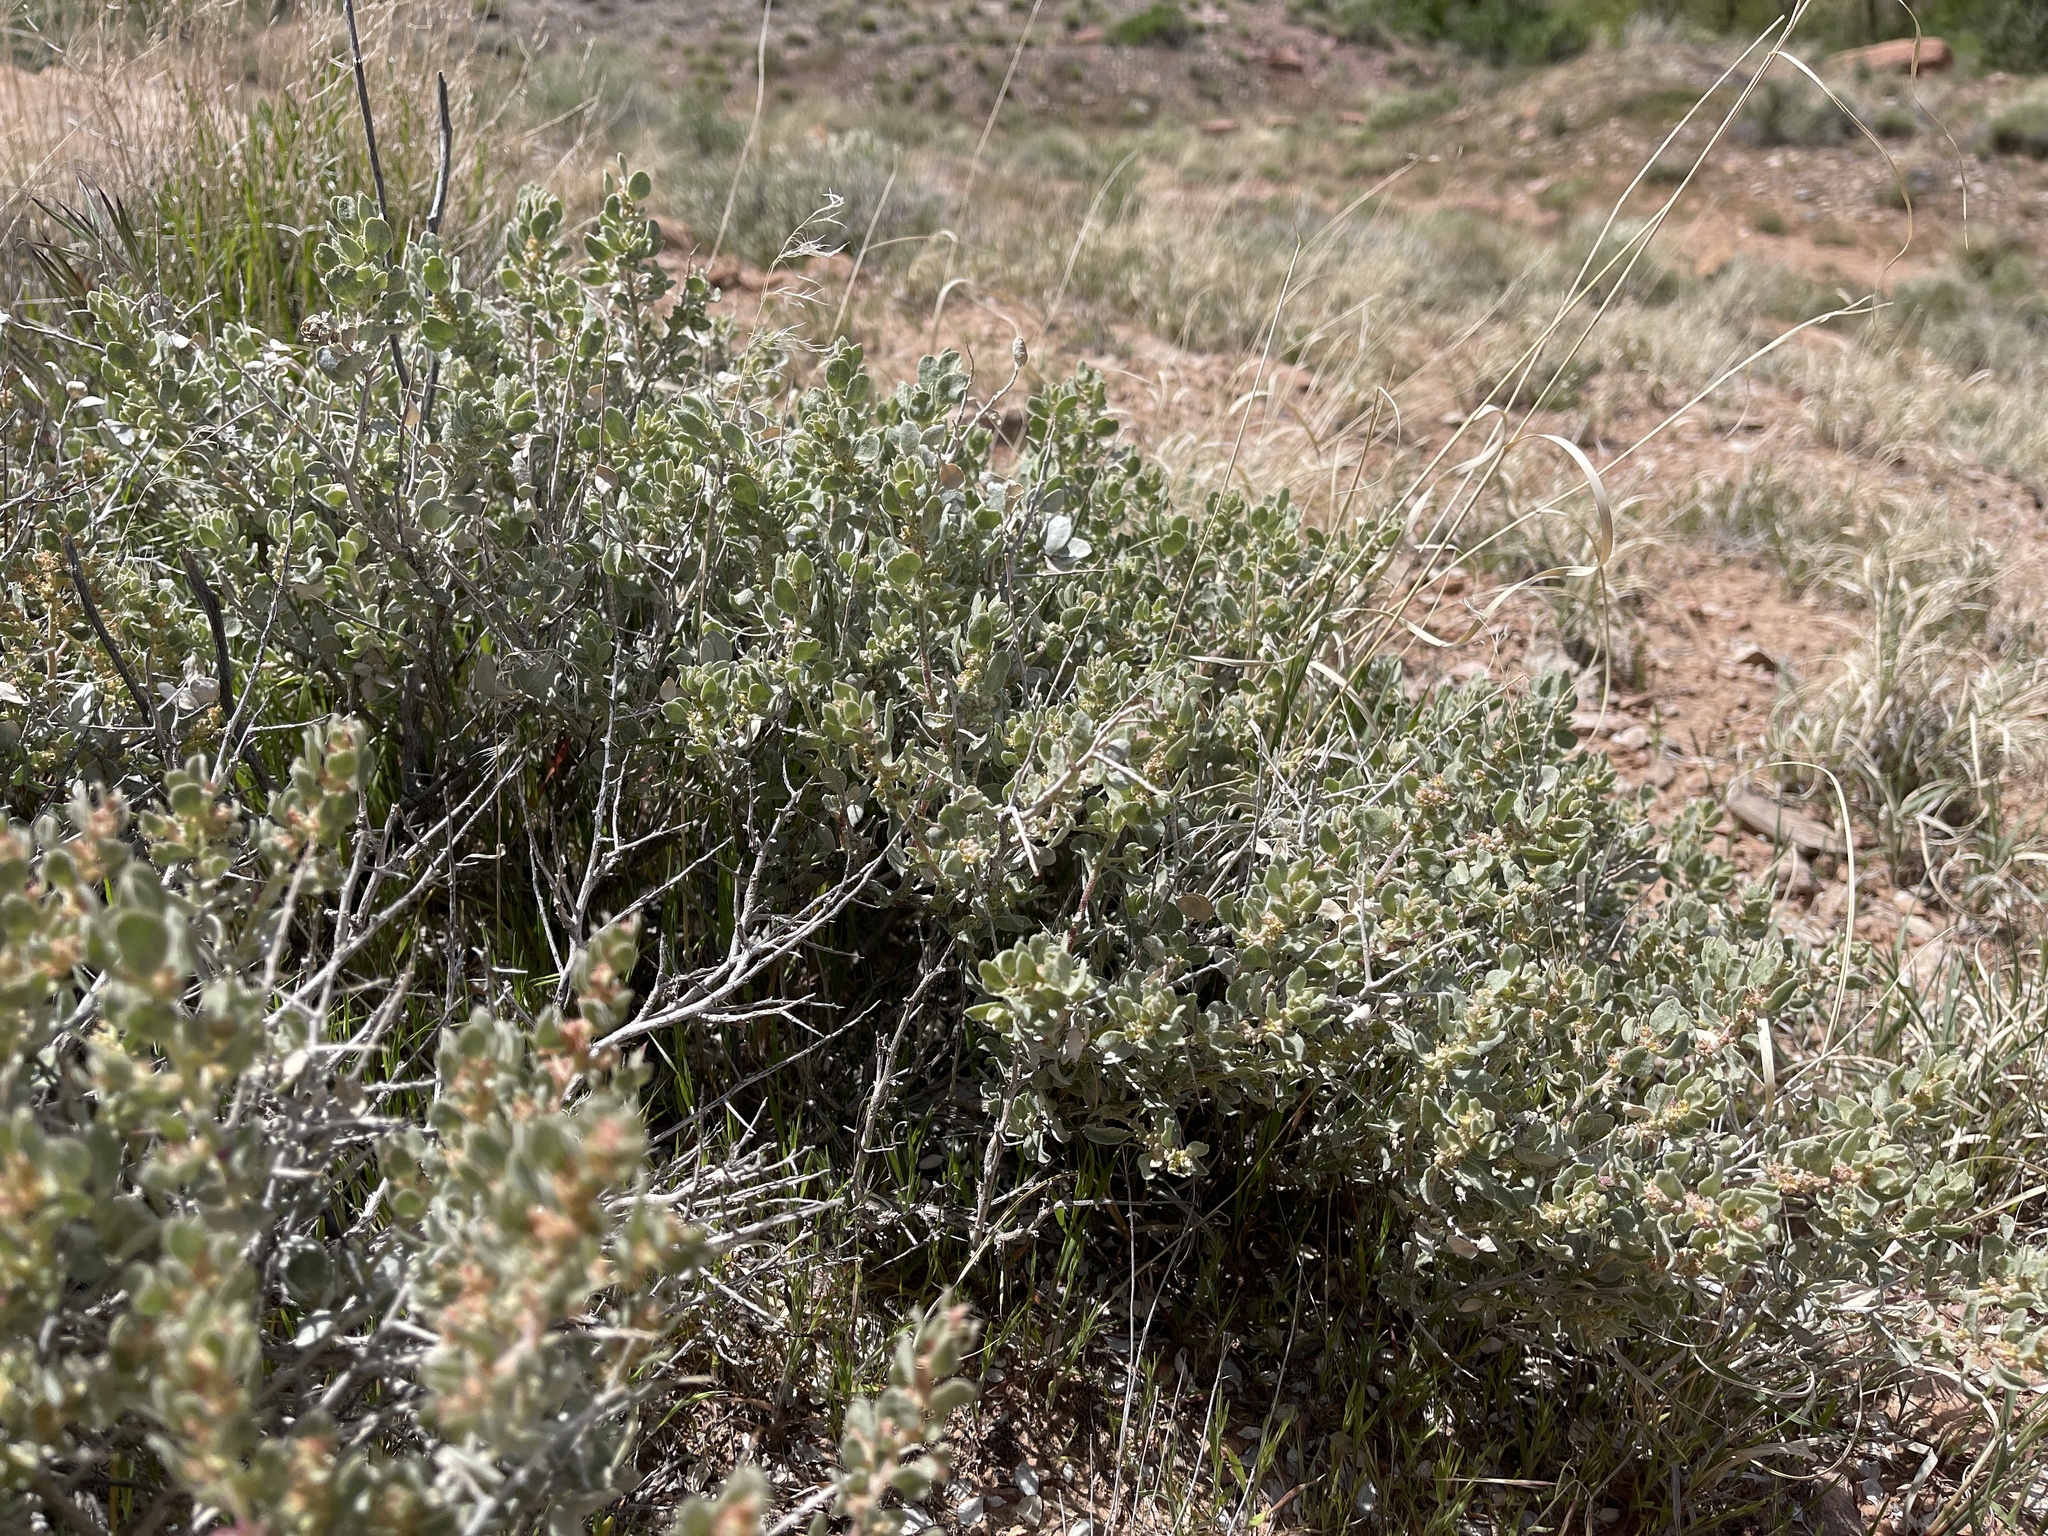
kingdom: Plantae
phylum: Tracheophyta
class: Magnoliopsida
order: Caryophyllales
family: Amaranthaceae
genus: Atriplex
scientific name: Atriplex confertifolia
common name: Shadscale
